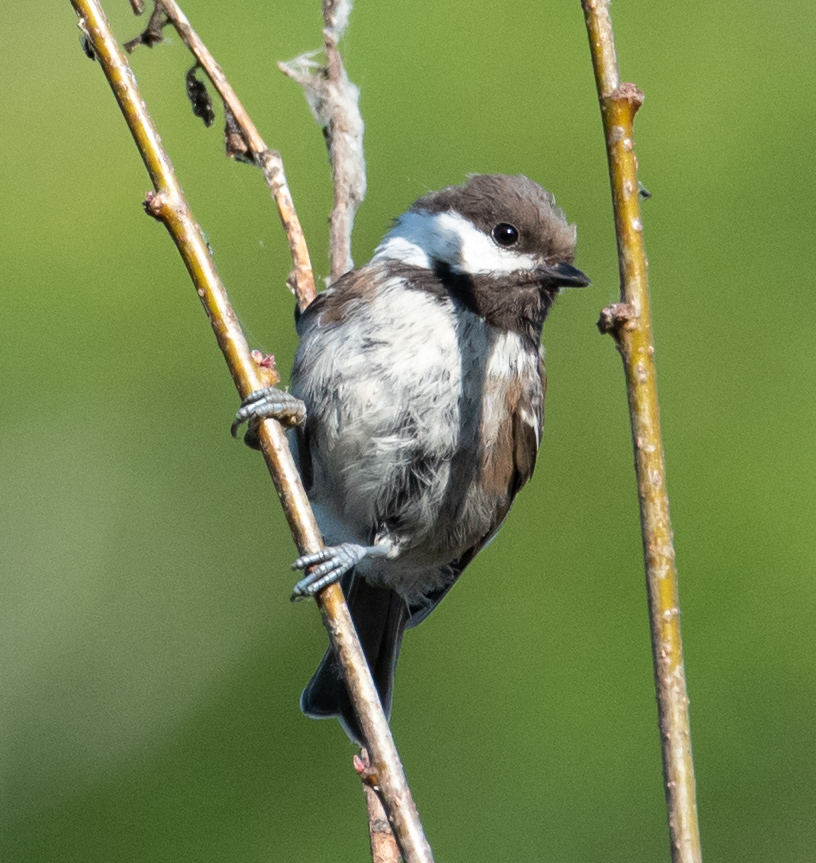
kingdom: Animalia
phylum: Chordata
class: Aves
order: Passeriformes
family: Paridae
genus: Poecile
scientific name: Poecile rufescens
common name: Chestnut-backed chickadee
